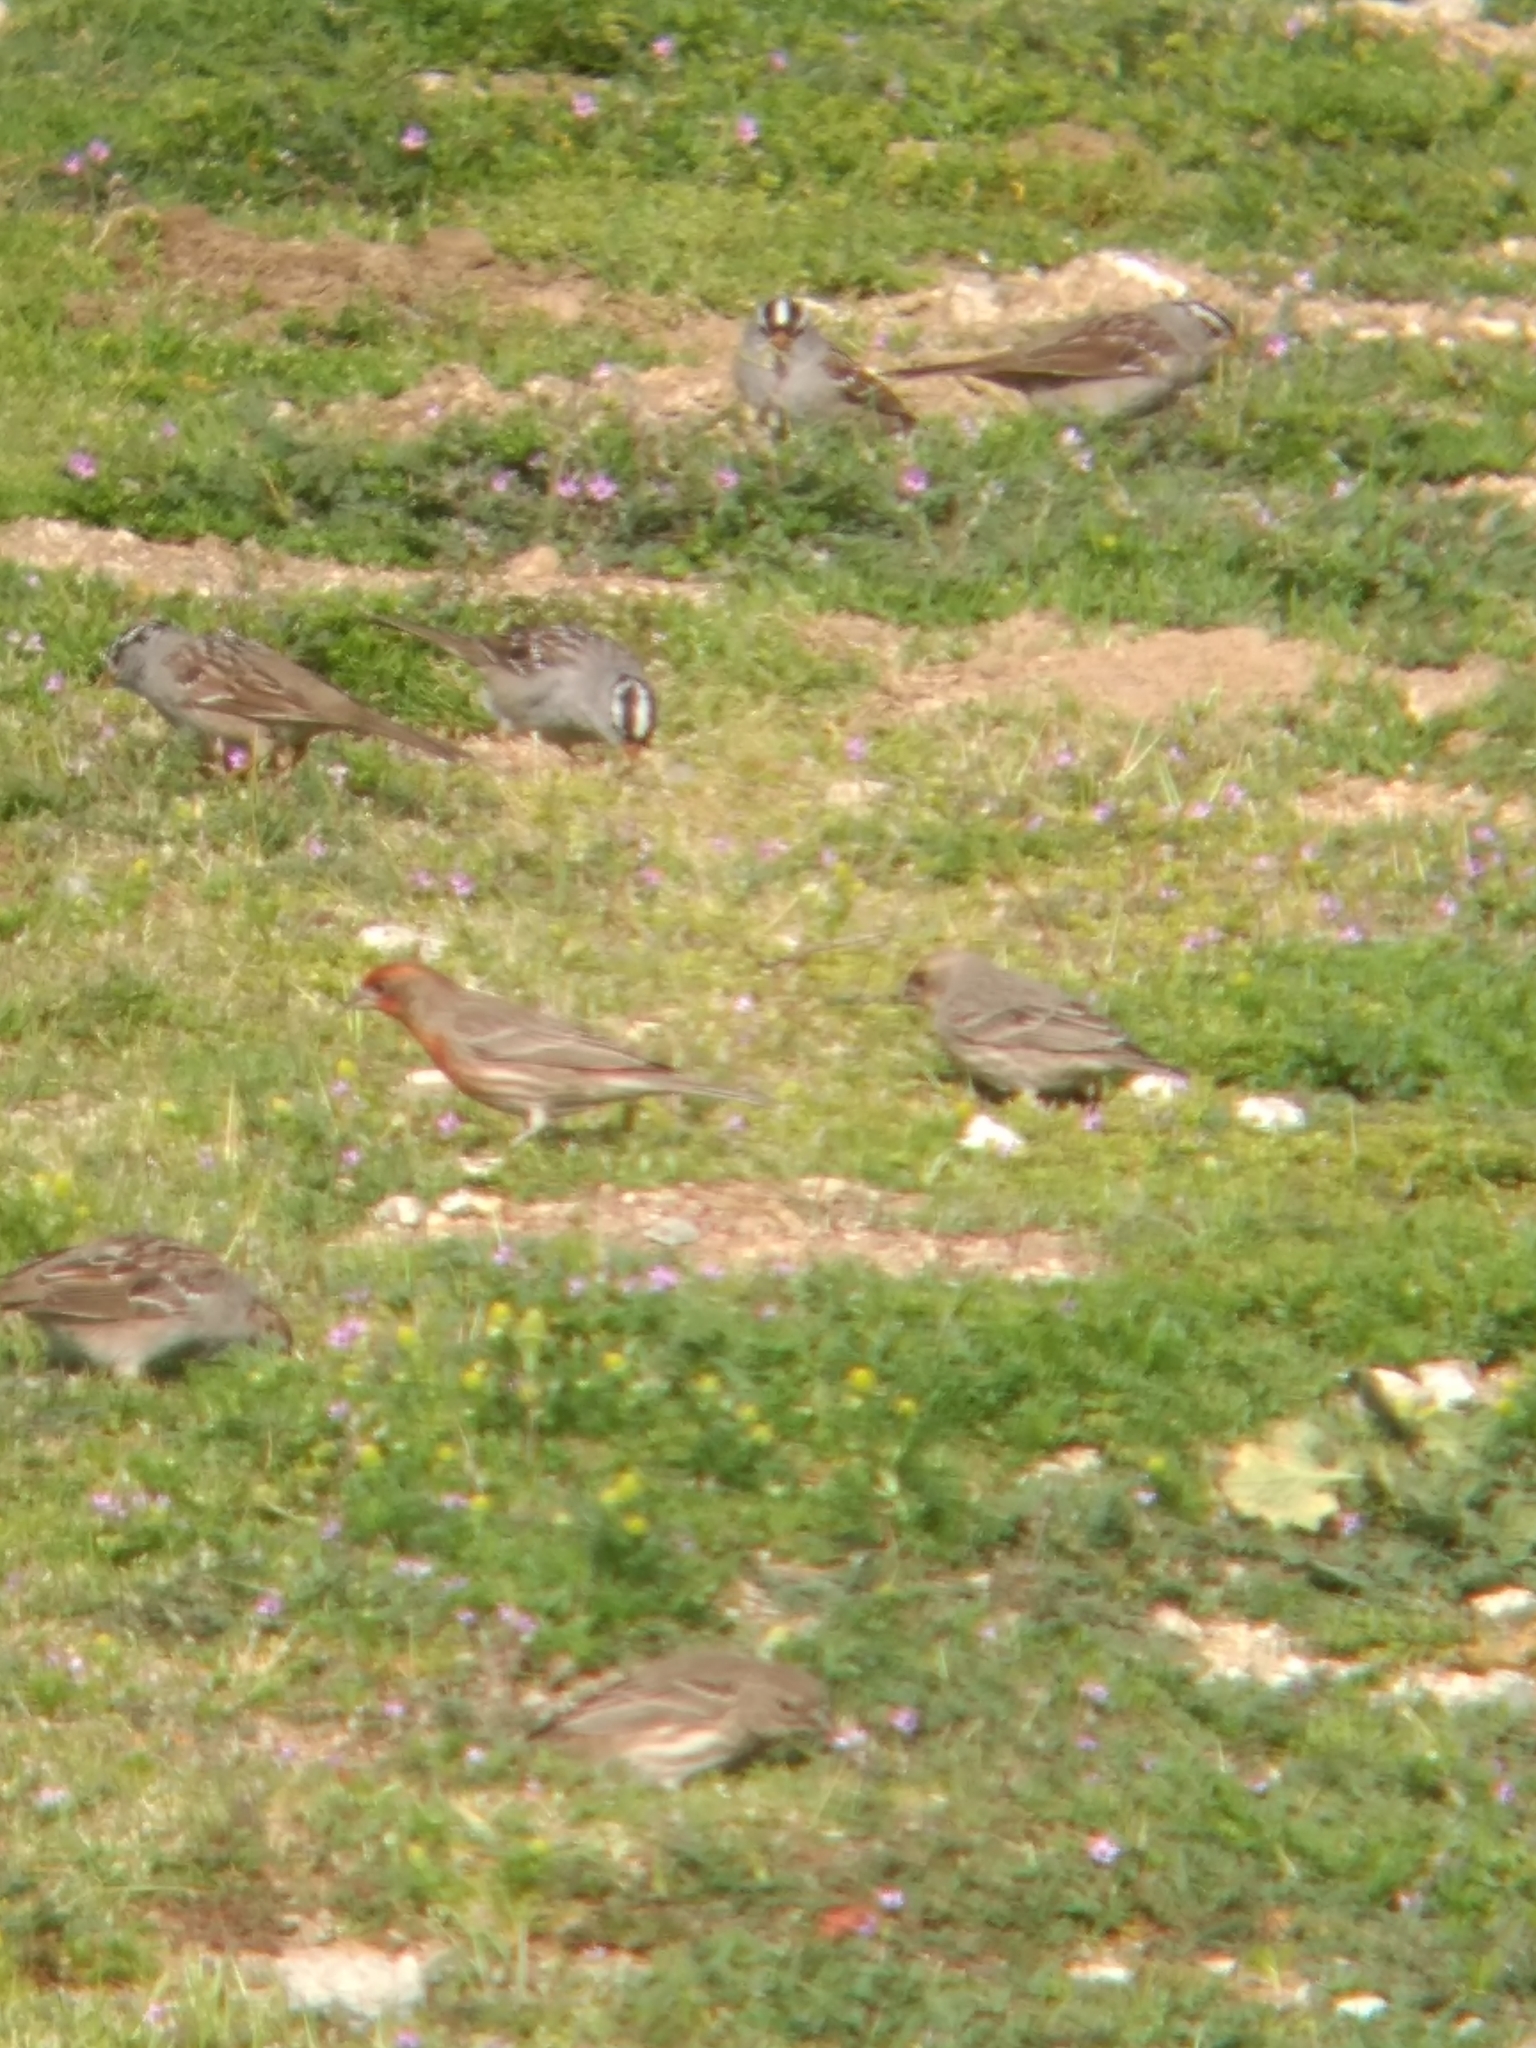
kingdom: Animalia
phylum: Chordata
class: Aves
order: Passeriformes
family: Fringillidae
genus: Haemorhous
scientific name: Haemorhous mexicanus
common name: House finch
